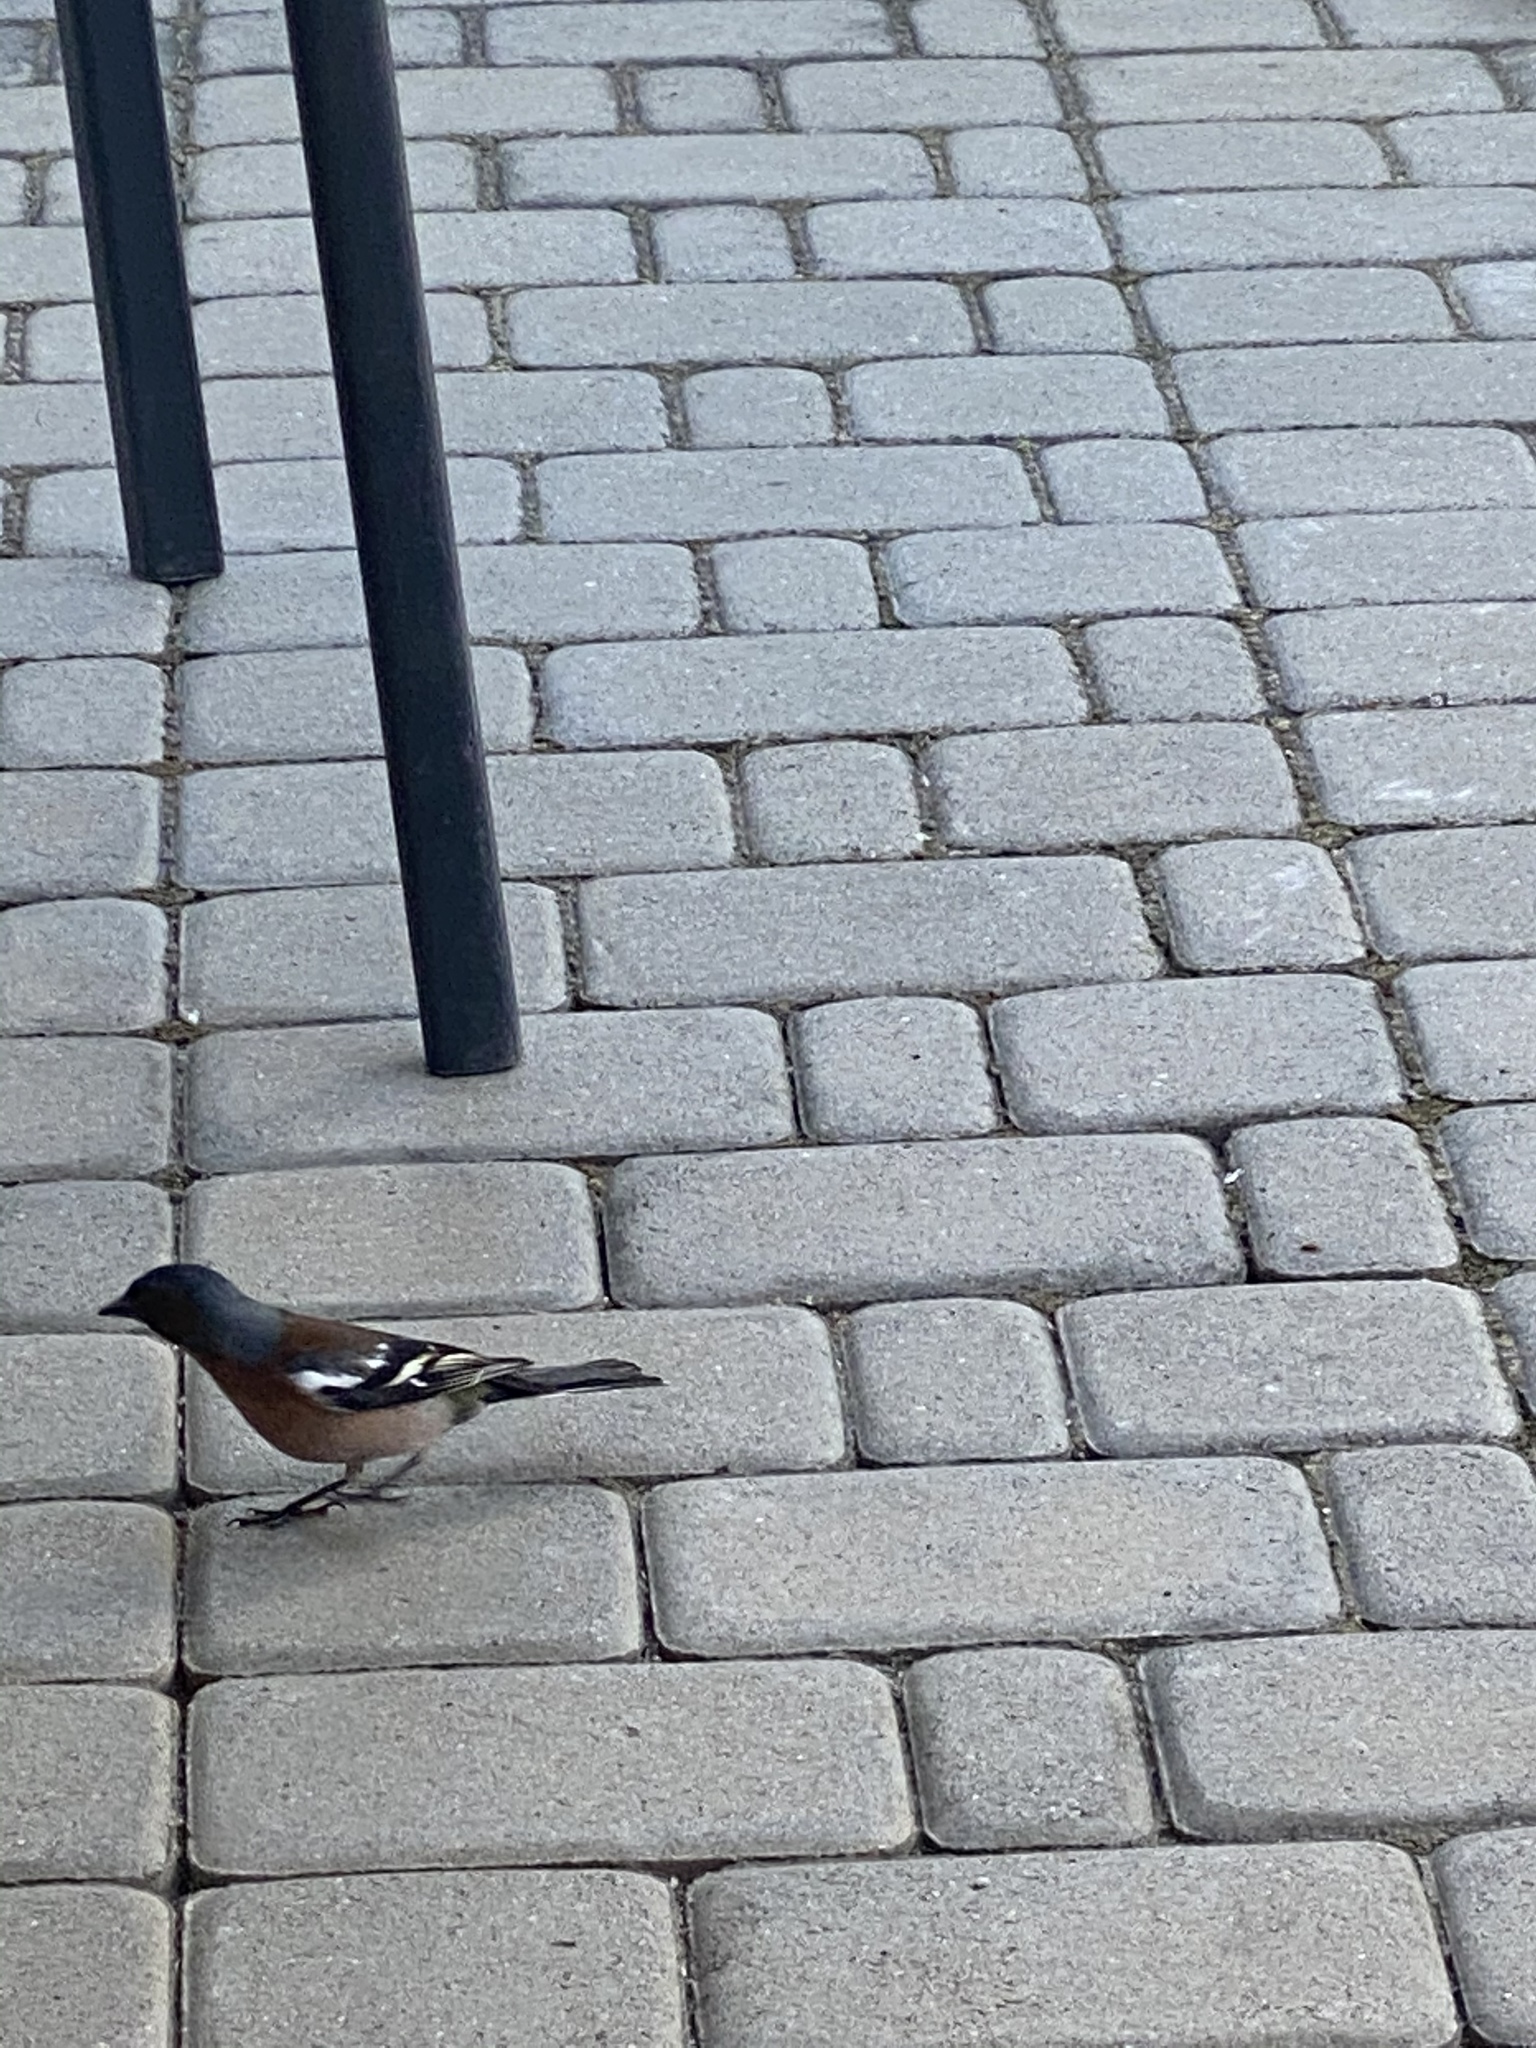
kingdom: Animalia
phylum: Chordata
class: Aves
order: Passeriformes
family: Fringillidae
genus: Fringilla
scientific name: Fringilla coelebs
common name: Common chaffinch
